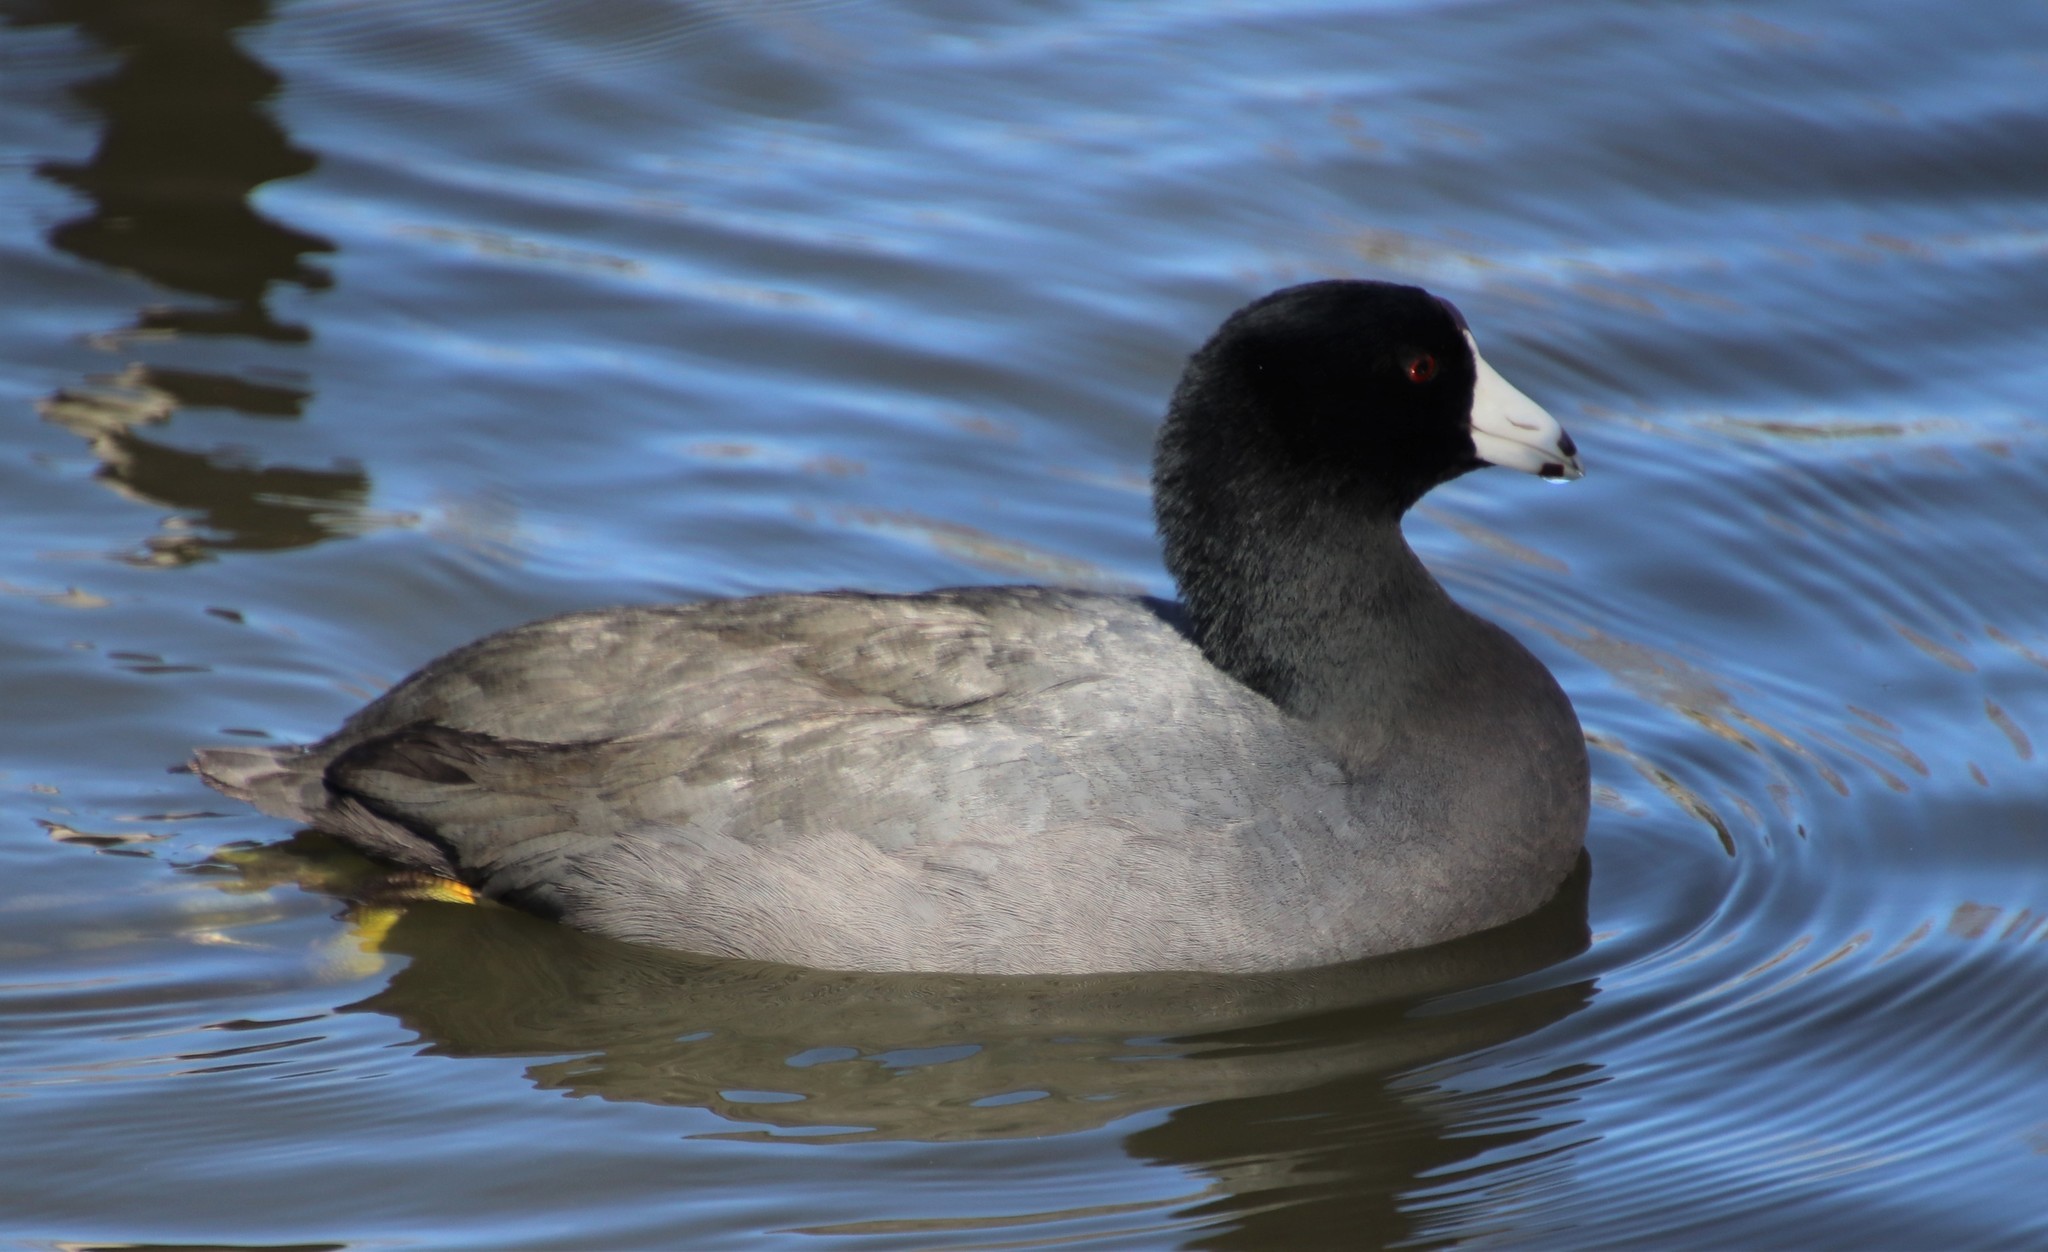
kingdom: Animalia
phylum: Chordata
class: Aves
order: Gruiformes
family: Rallidae
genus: Fulica
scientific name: Fulica americana
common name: American coot
